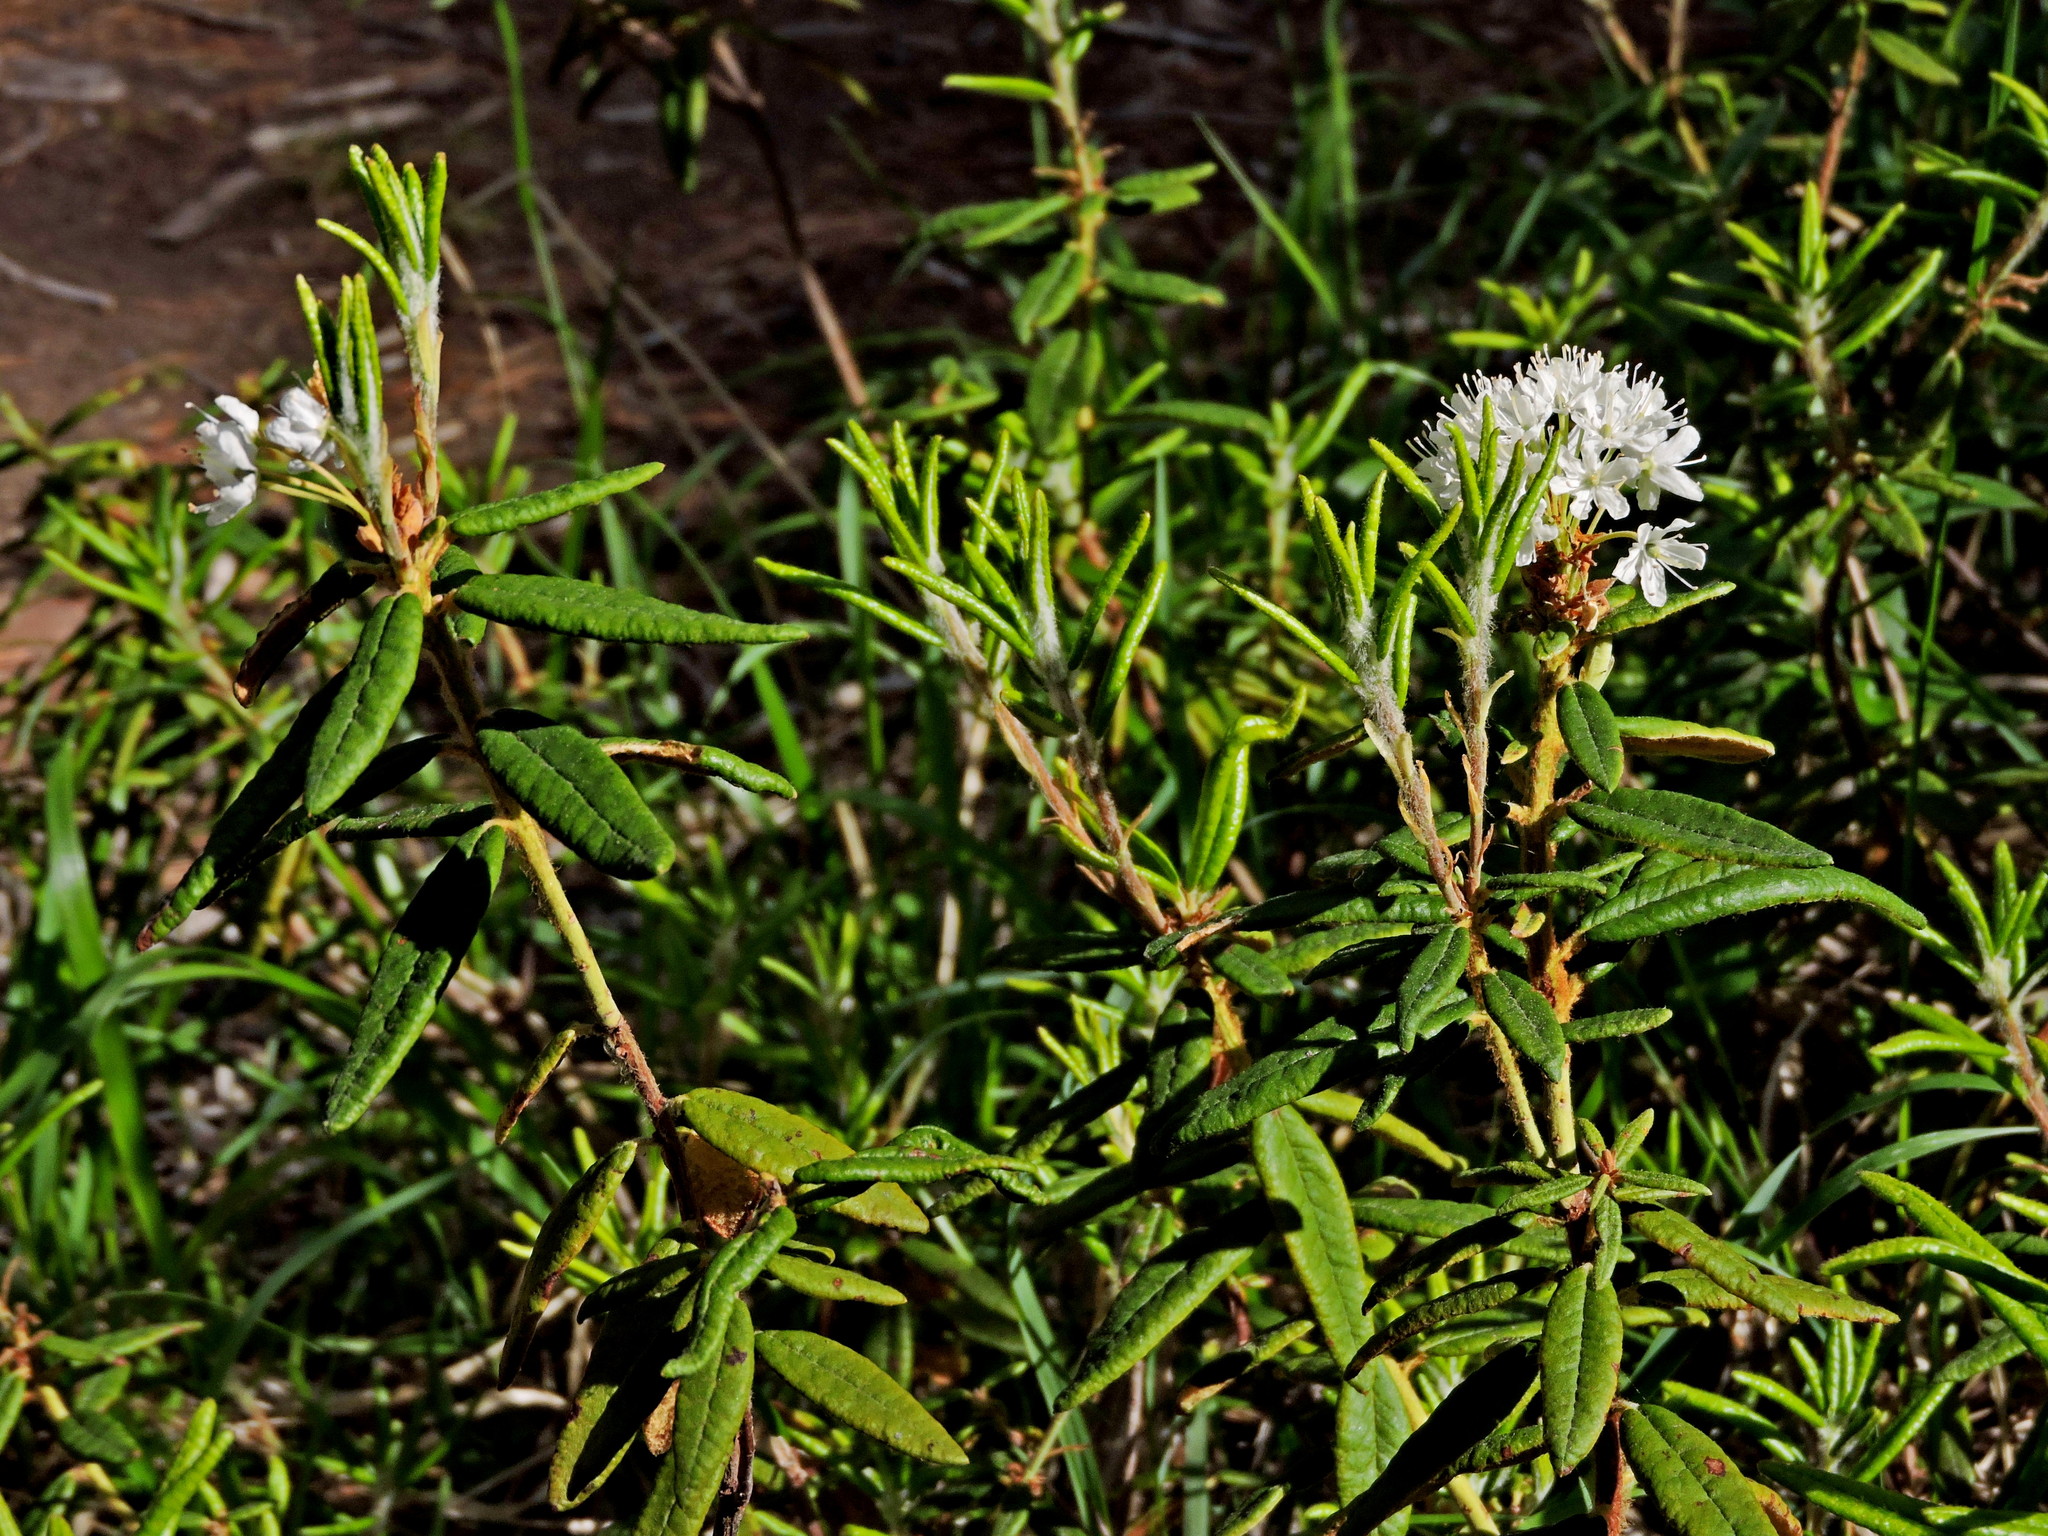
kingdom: Plantae
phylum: Tracheophyta
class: Magnoliopsida
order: Ericales
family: Ericaceae
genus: Rhododendron
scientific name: Rhododendron groenlandicum
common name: Bog labrador tea
